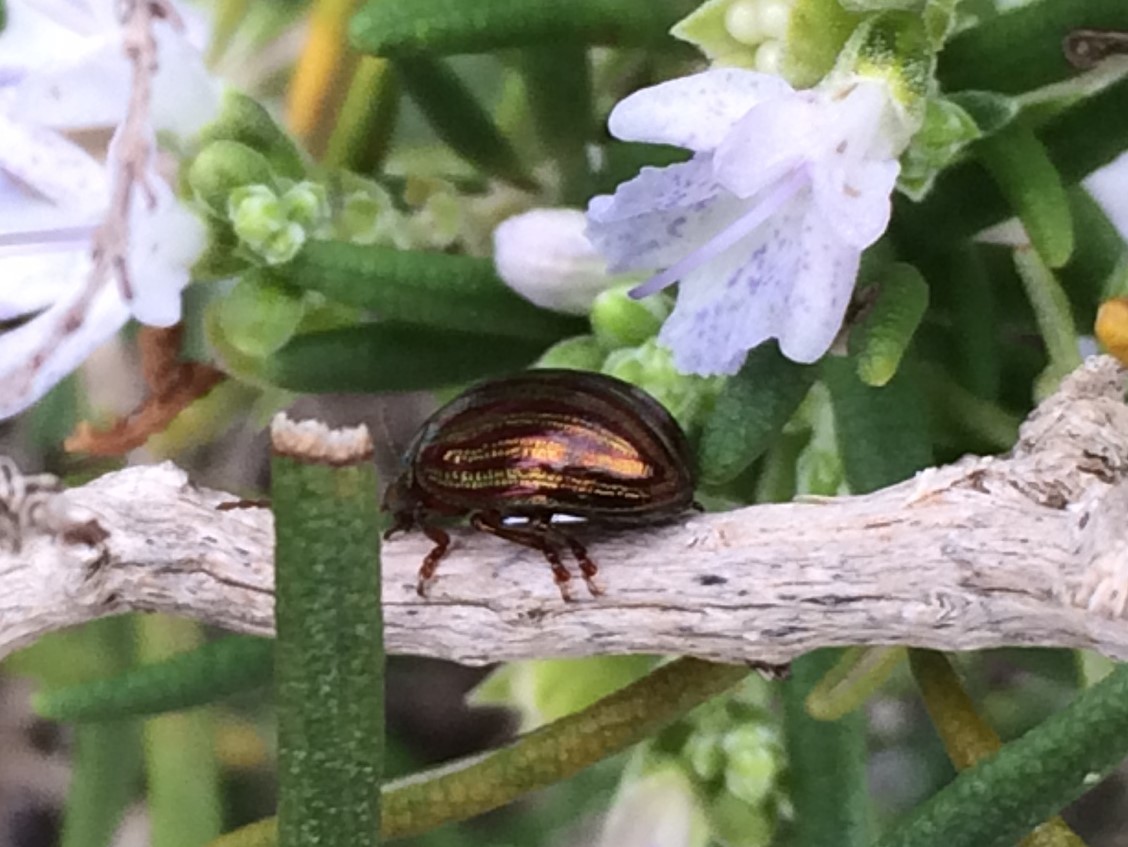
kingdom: Animalia
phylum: Arthropoda
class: Insecta
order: Coleoptera
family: Chrysomelidae
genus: Chrysolina
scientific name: Chrysolina americana
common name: Rosemary beetle
